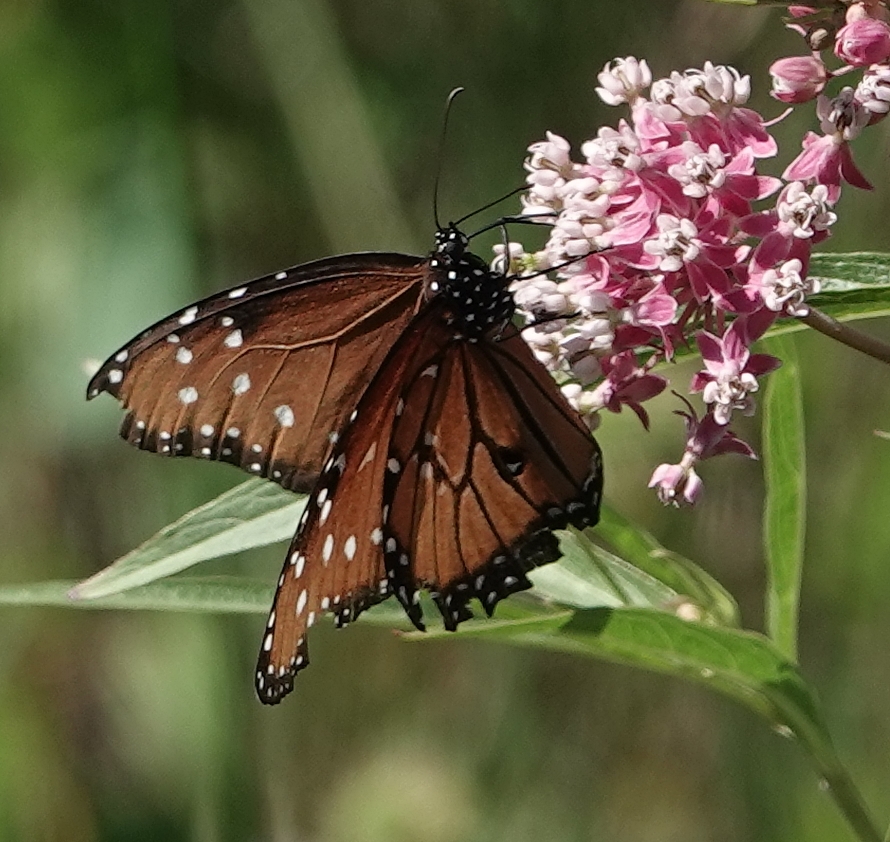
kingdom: Animalia
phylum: Arthropoda
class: Insecta
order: Lepidoptera
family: Nymphalidae
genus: Danaus
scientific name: Danaus gilippus
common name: Queen
